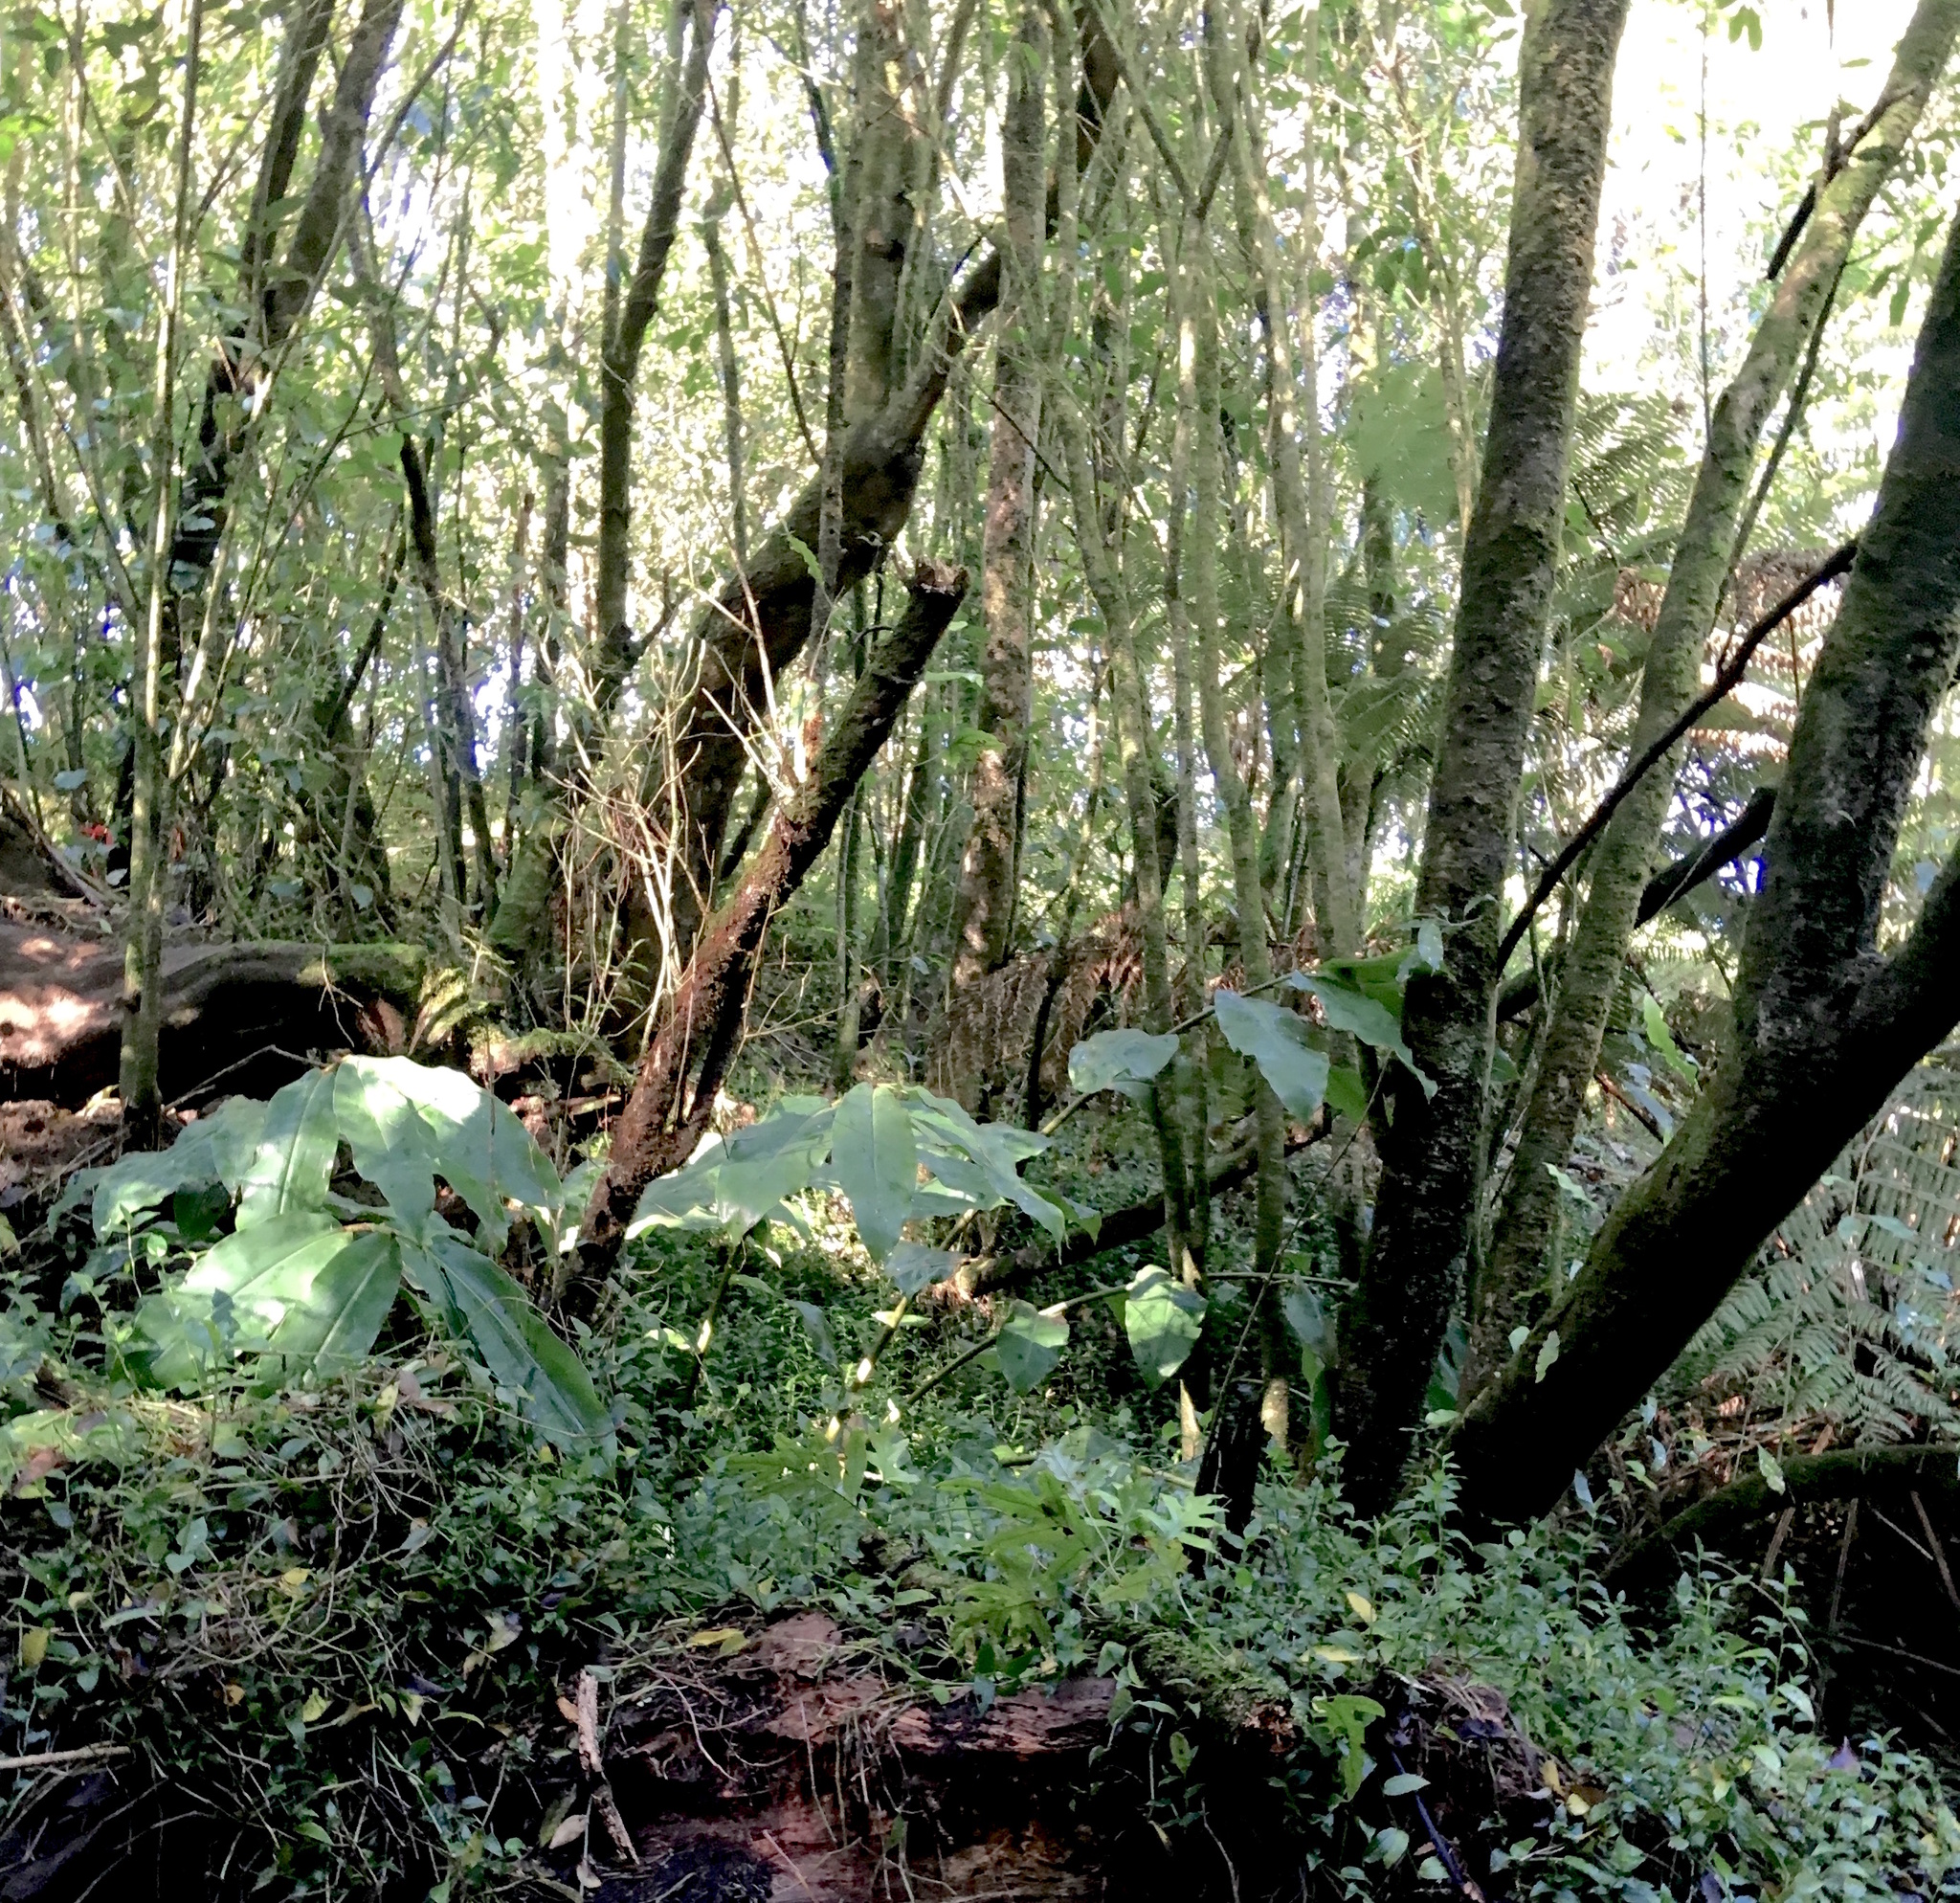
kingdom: Plantae
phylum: Tracheophyta
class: Liliopsida
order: Commelinales
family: Commelinaceae
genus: Tradescantia
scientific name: Tradescantia fluminensis
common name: Wandering-jew
